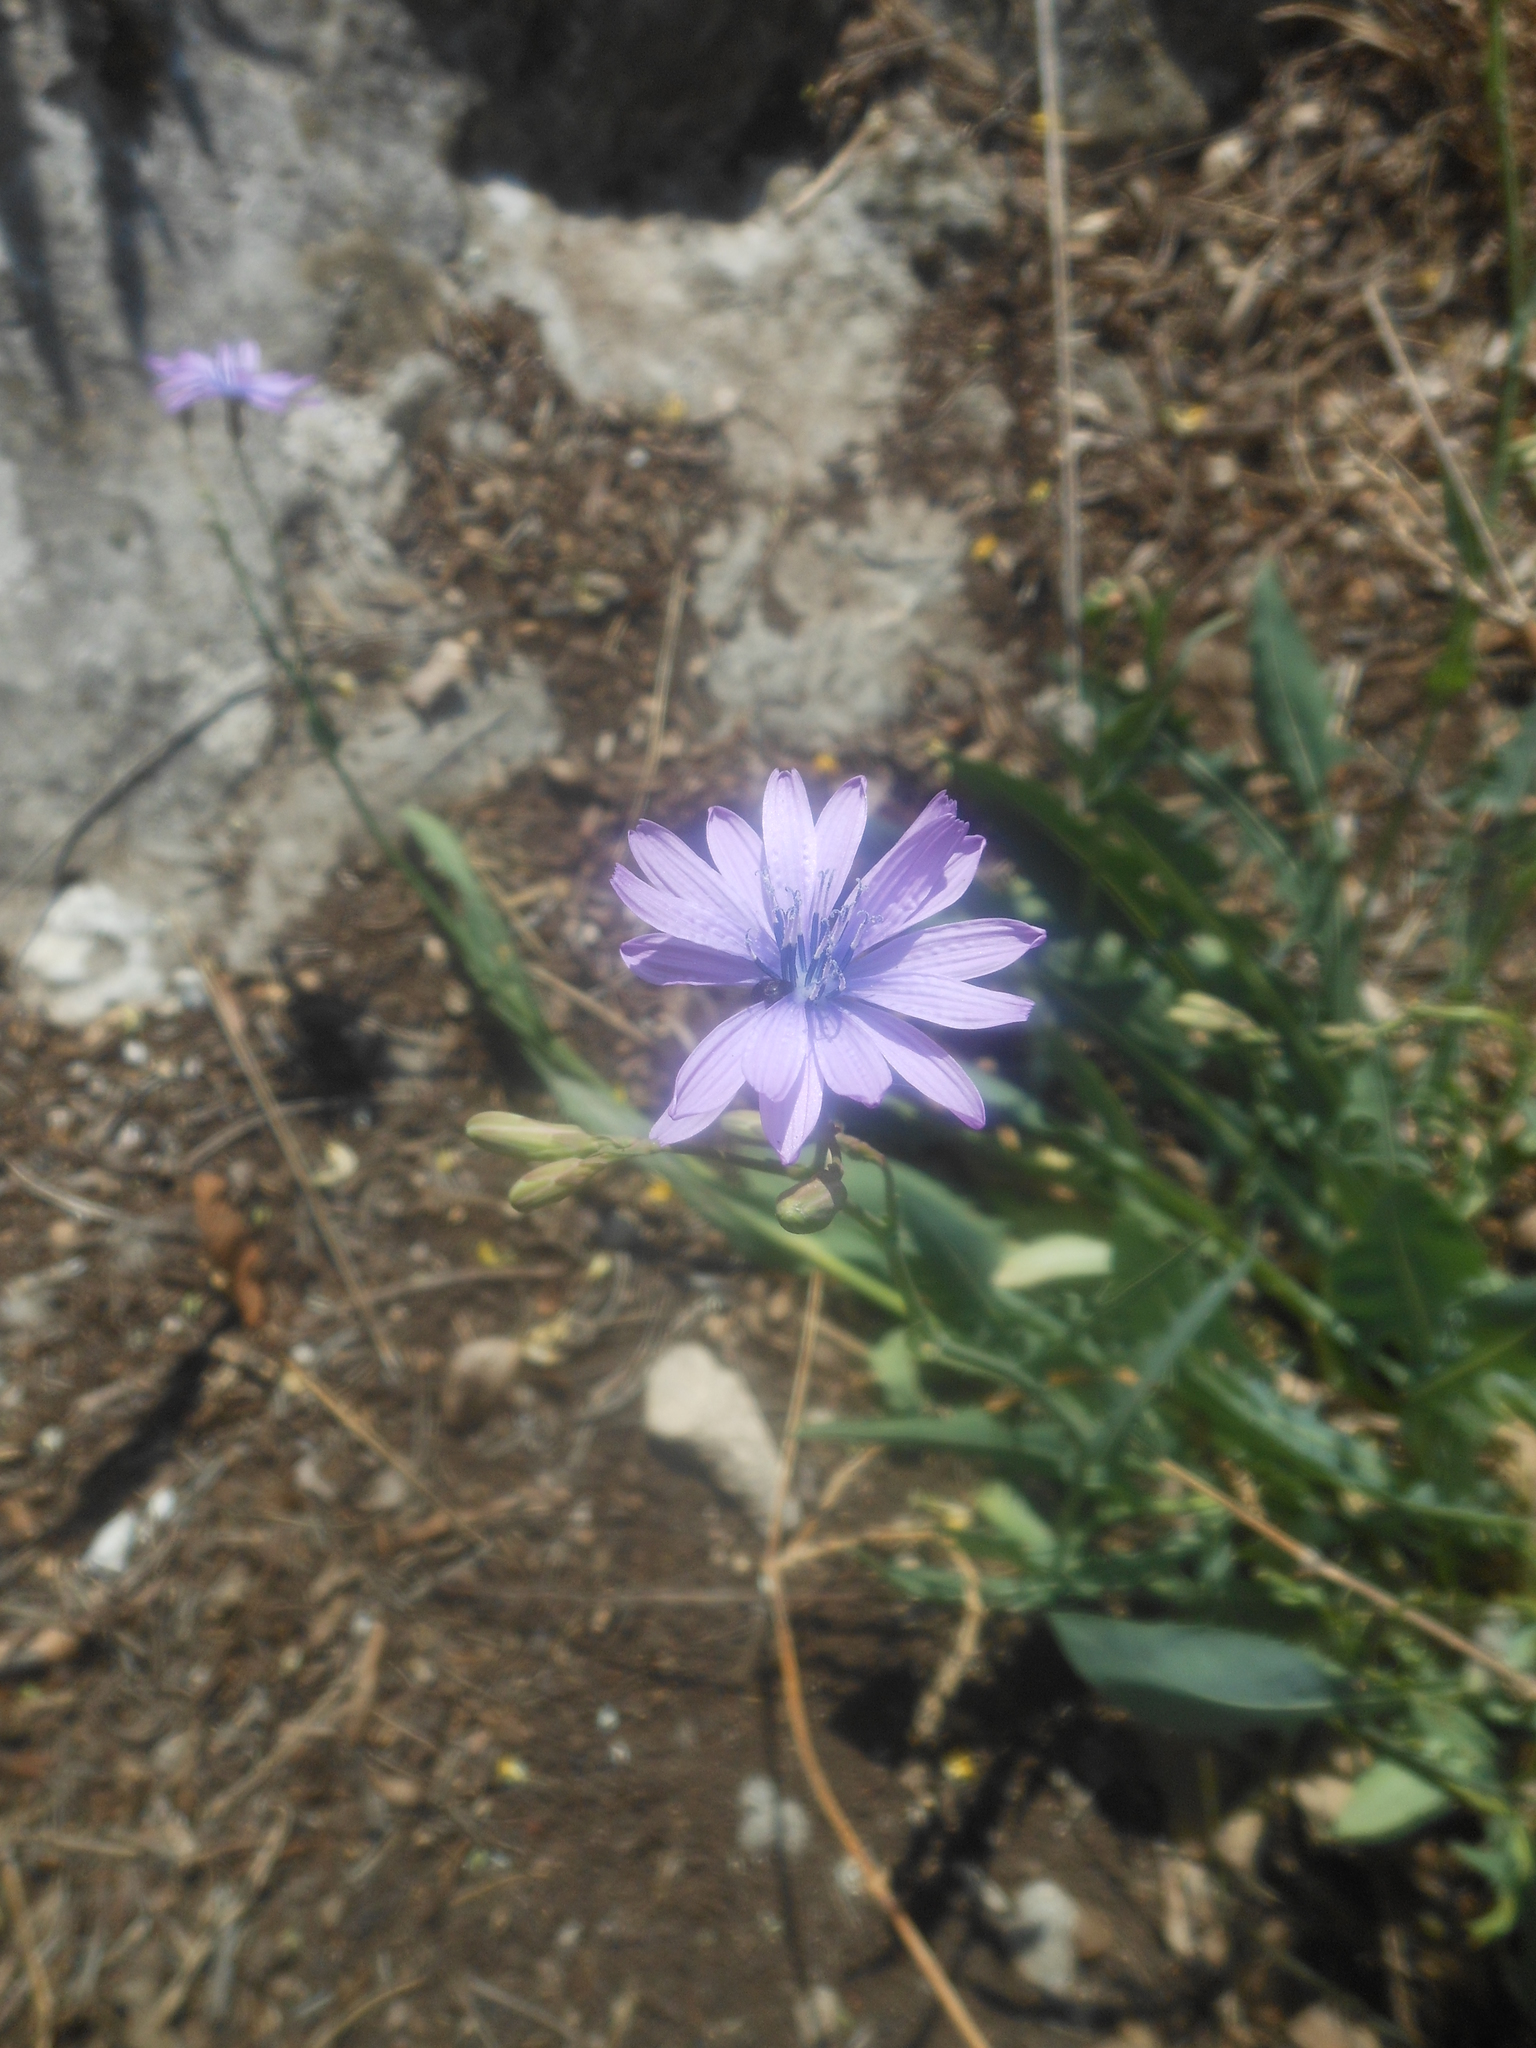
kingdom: Plantae
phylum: Tracheophyta
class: Magnoliopsida
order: Asterales
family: Asteraceae
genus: Lactuca
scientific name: Lactuca perennis
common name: Mountain lettuce
